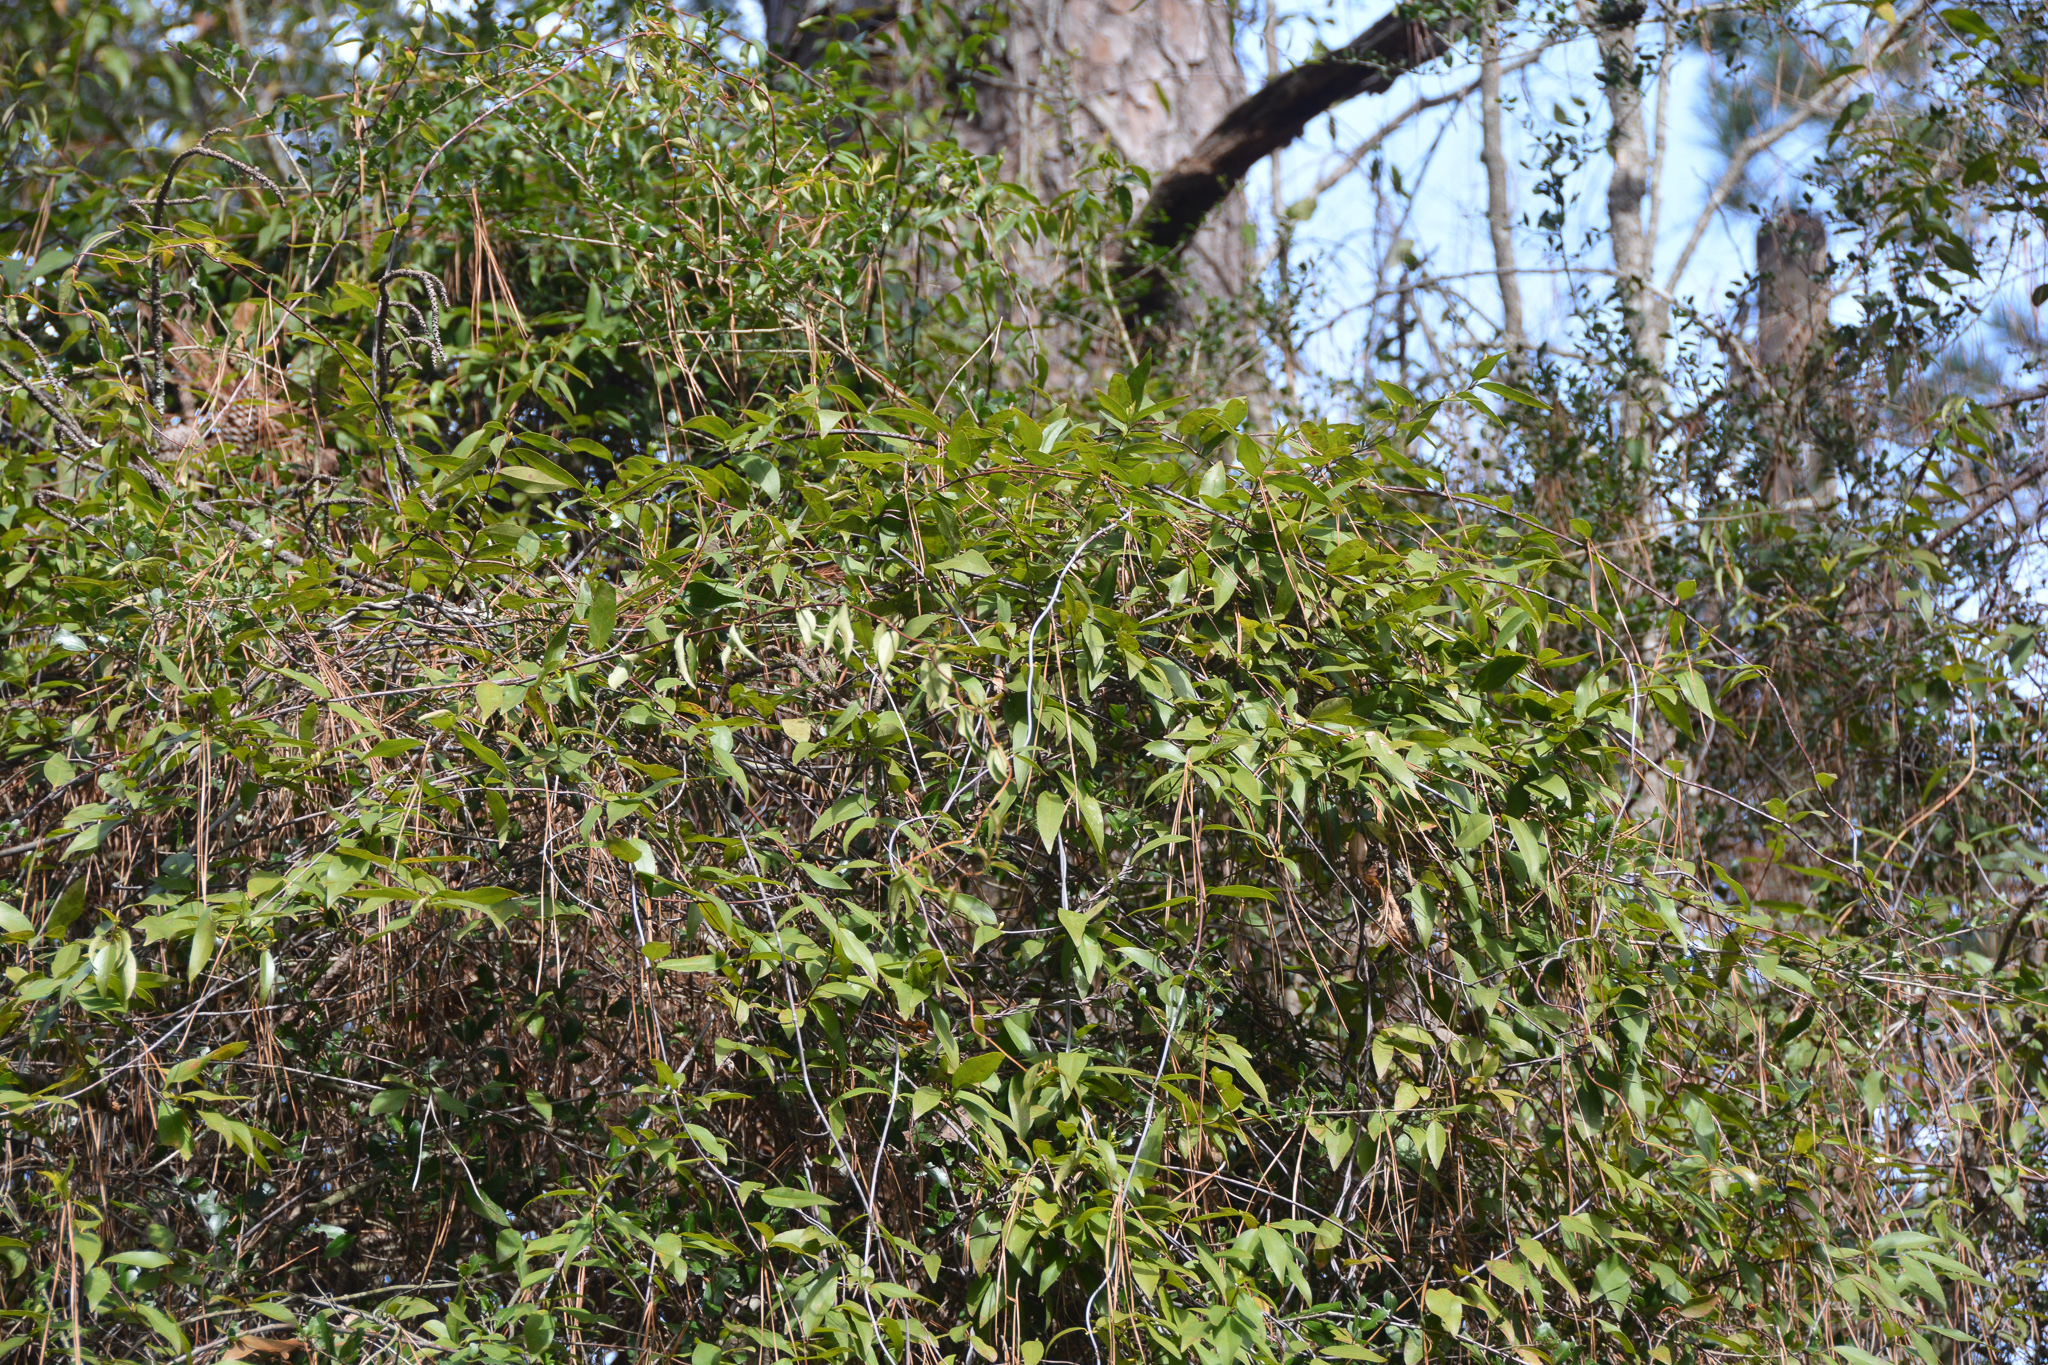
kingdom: Plantae
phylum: Tracheophyta
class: Magnoliopsida
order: Gentianales
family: Gelsemiaceae
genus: Gelsemium
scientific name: Gelsemium sempervirens
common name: Carolina-jasmine
